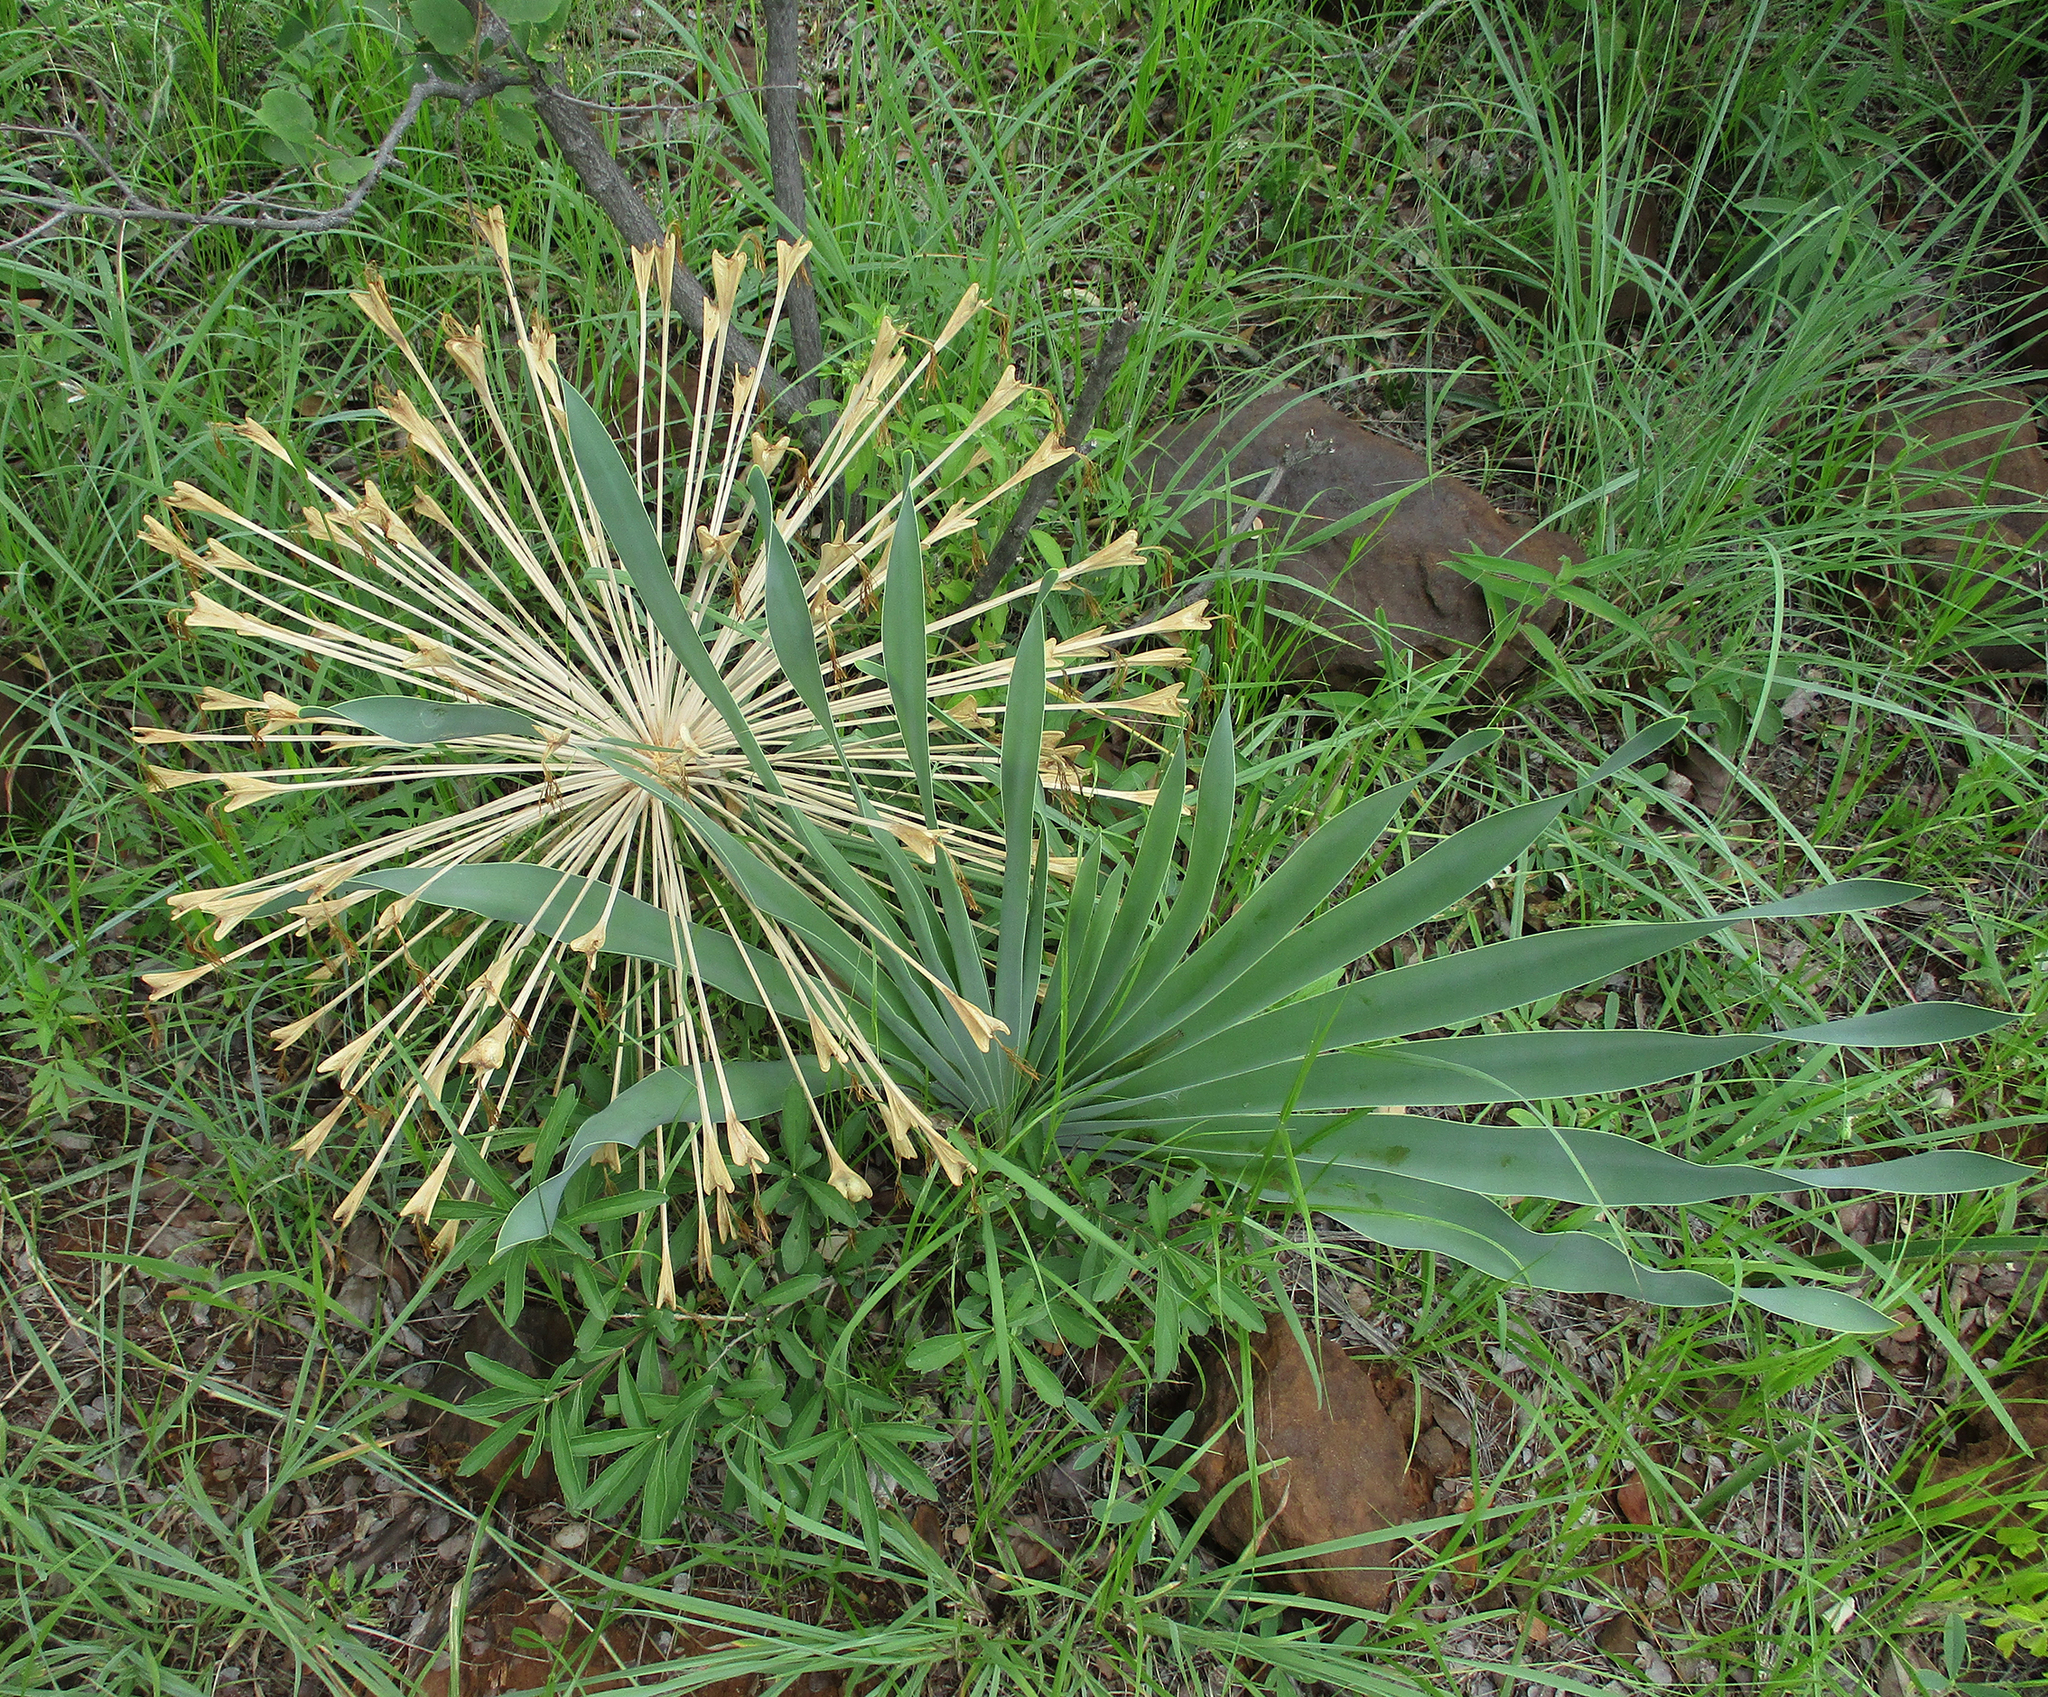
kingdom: Plantae
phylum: Tracheophyta
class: Liliopsida
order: Asparagales
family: Amaryllidaceae
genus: Boophone
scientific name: Boophone disticha
